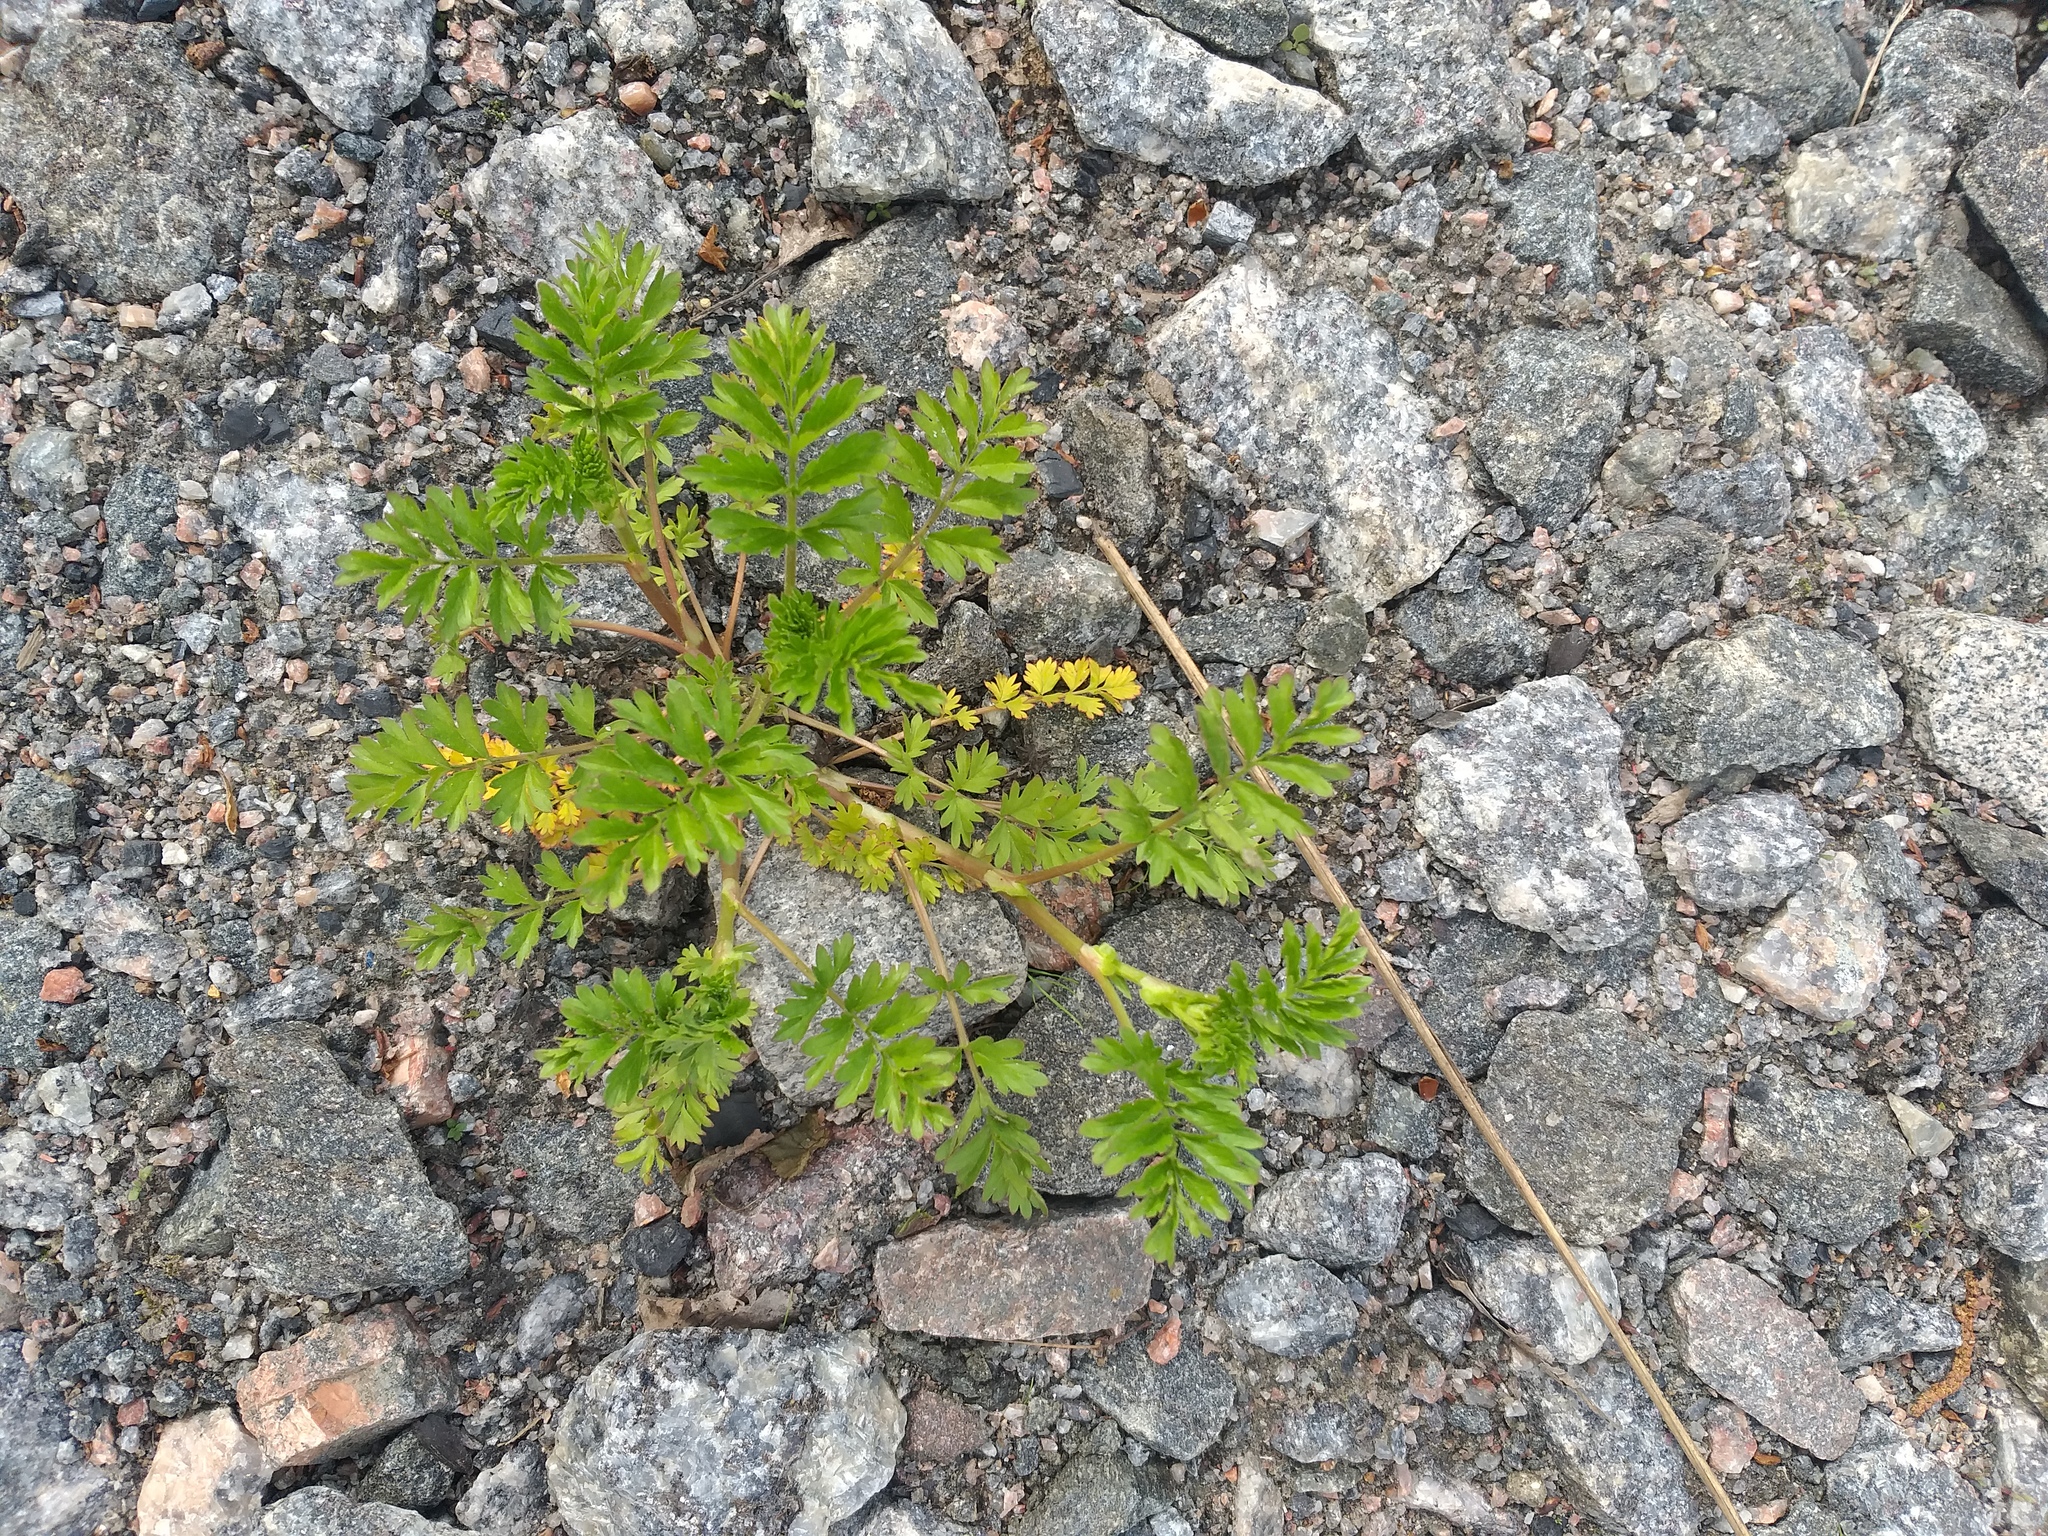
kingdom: Plantae
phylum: Tracheophyta
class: Magnoliopsida
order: Rosales
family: Rosaceae
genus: Potentilla
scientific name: Potentilla supina
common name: Prostrate cinquefoil
